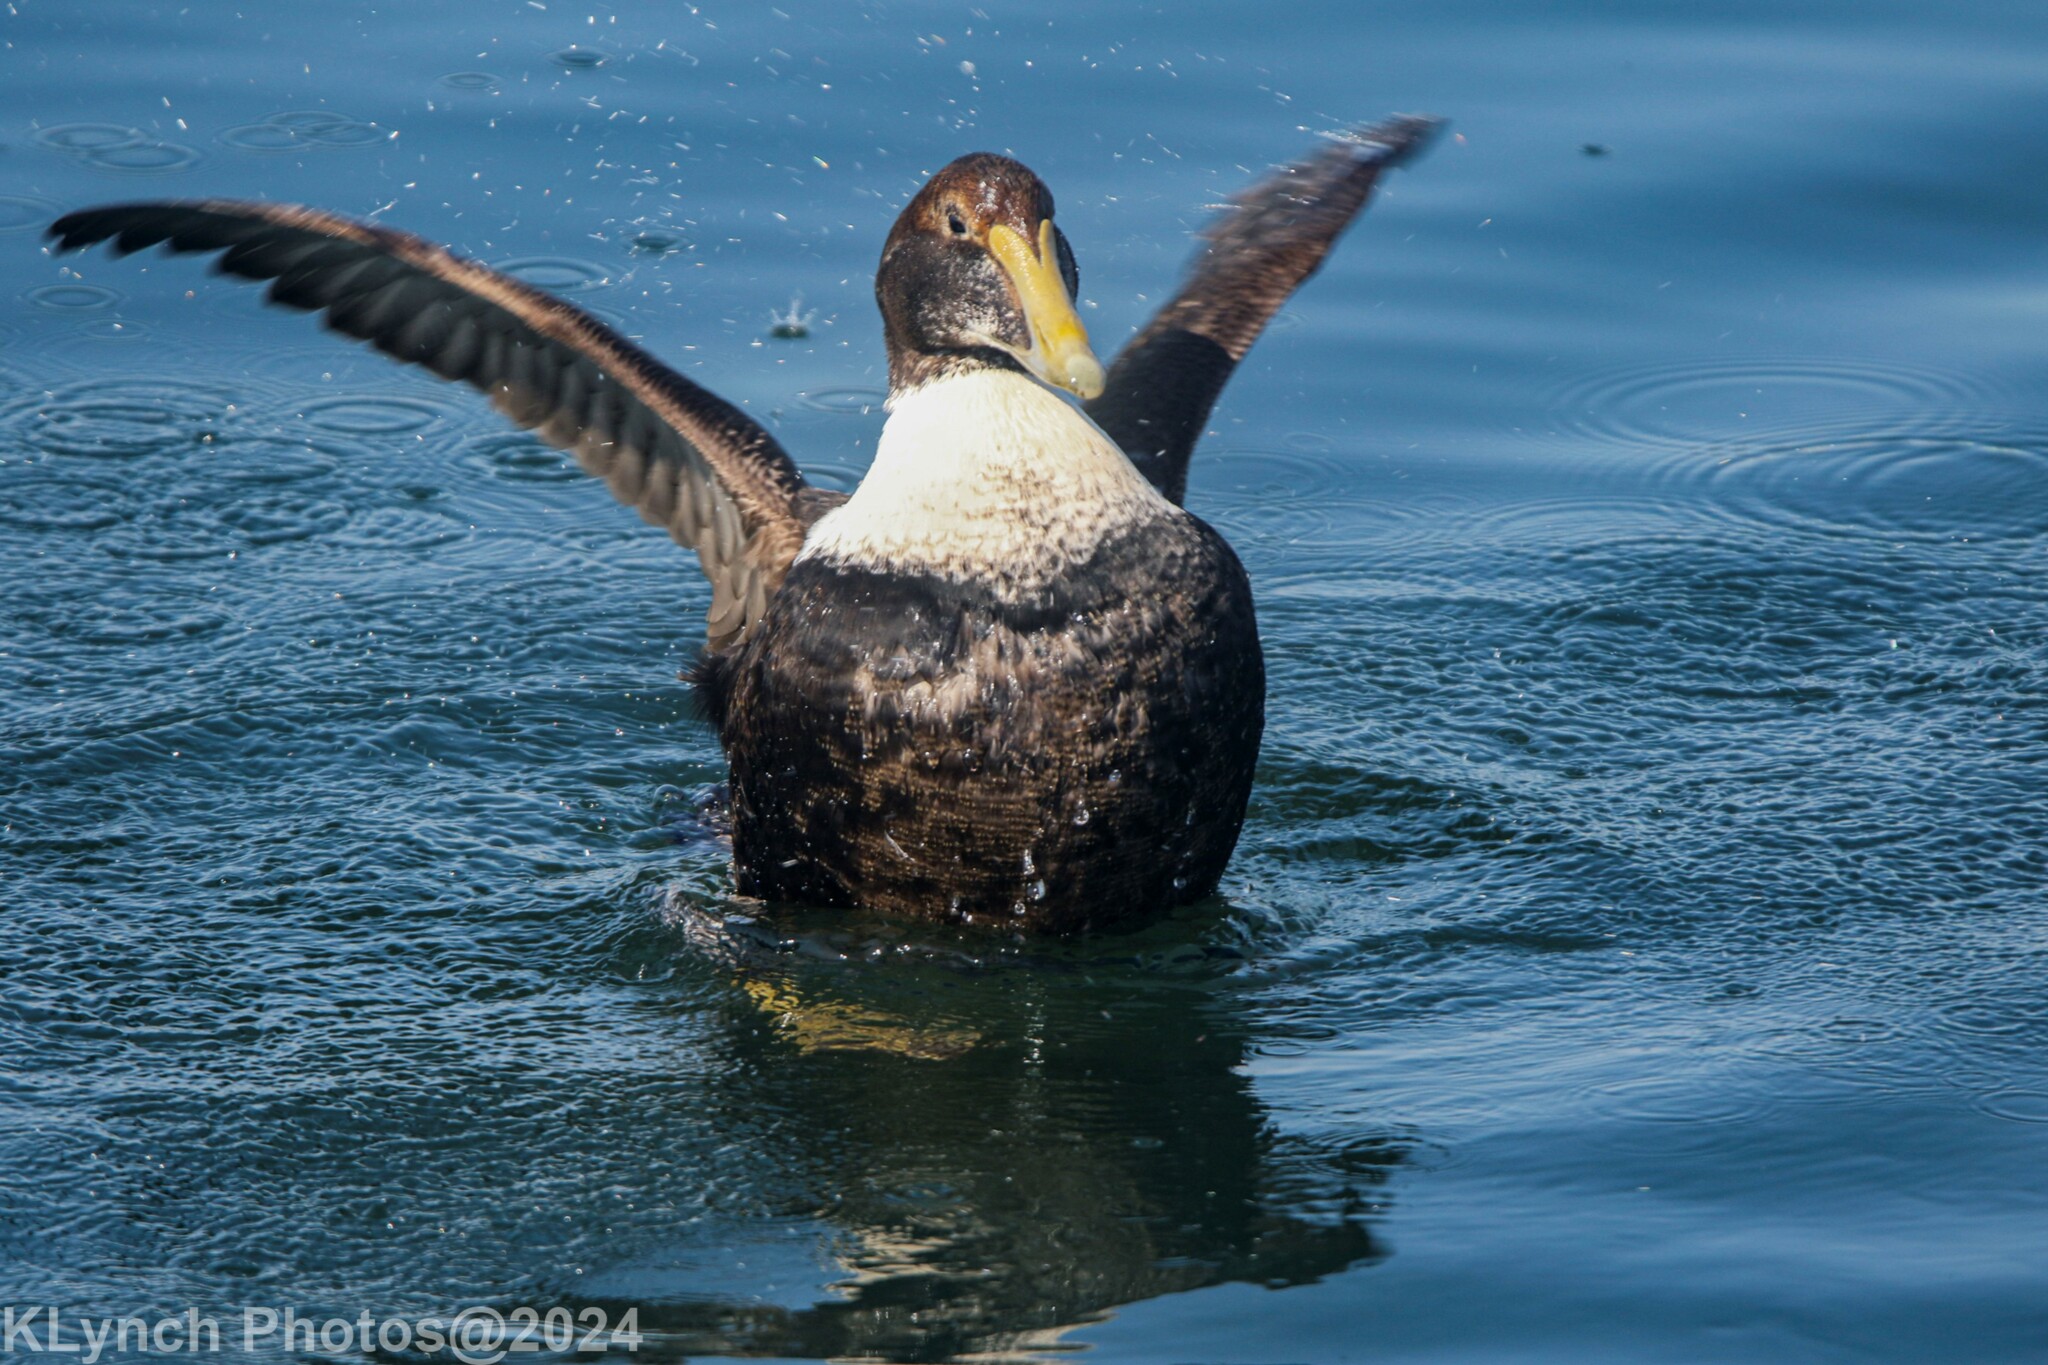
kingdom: Animalia
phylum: Chordata
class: Aves
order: Anseriformes
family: Anatidae
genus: Somateria
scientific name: Somateria mollissima
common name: Common eider
